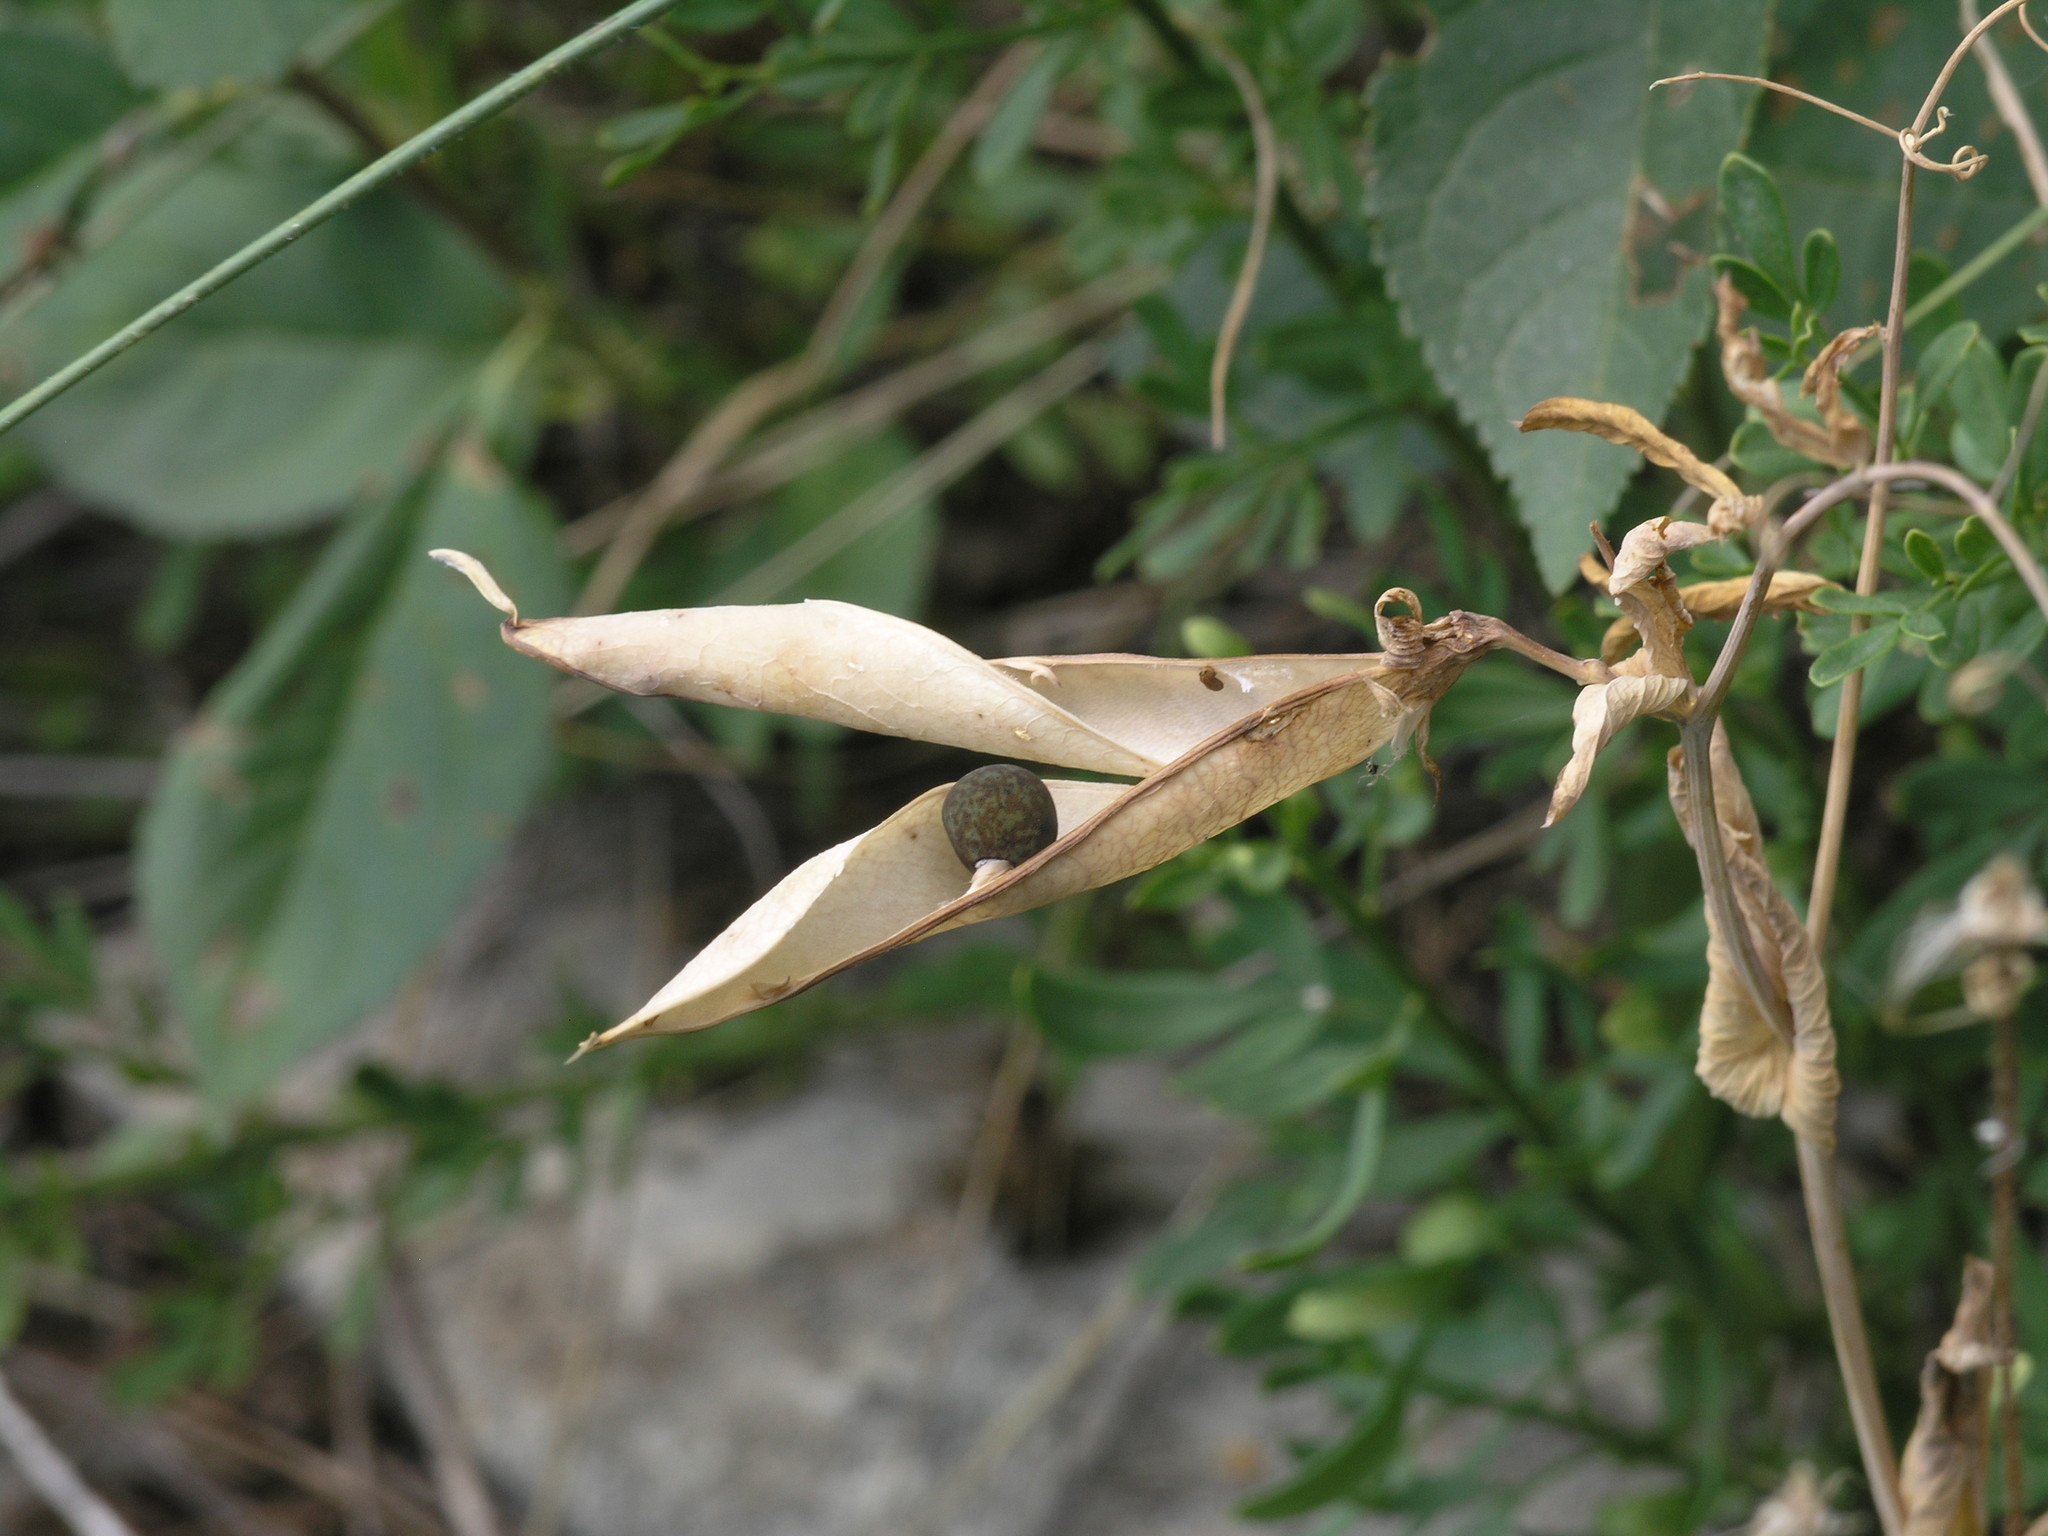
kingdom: Plantae
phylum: Tracheophyta
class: Magnoliopsida
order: Fabales
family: Fabaceae
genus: Lathyrus
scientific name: Lathyrus oleraceus
